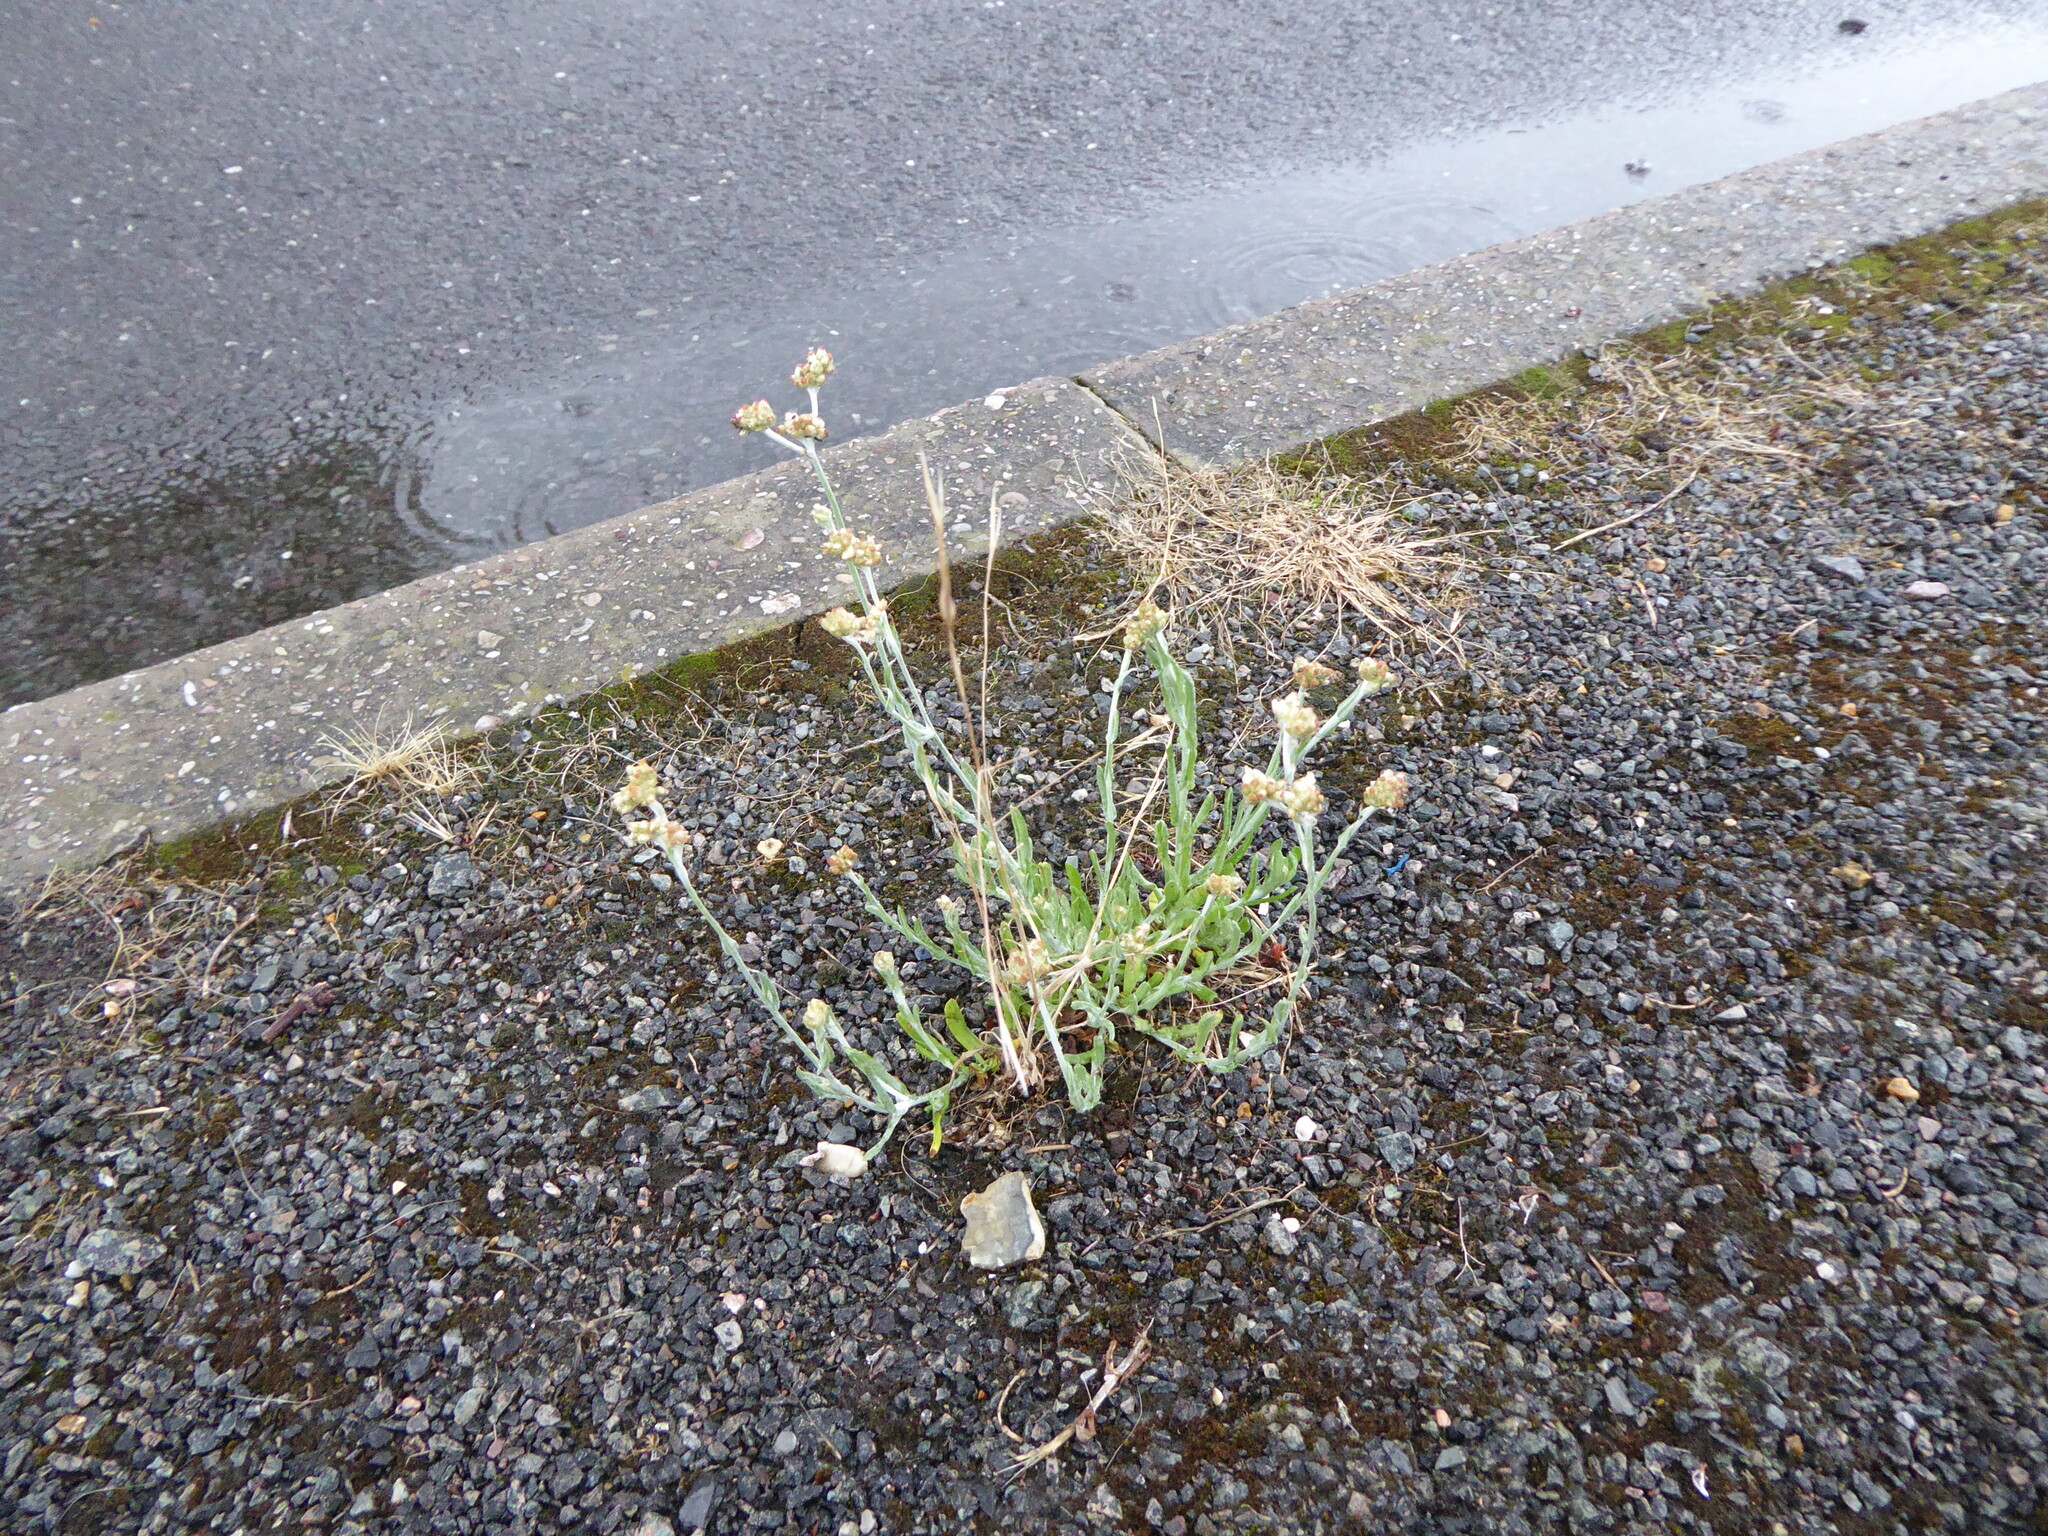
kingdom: Plantae
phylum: Tracheophyta
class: Magnoliopsida
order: Asterales
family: Asteraceae
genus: Helichrysum
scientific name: Helichrysum luteoalbum
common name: Daisy
